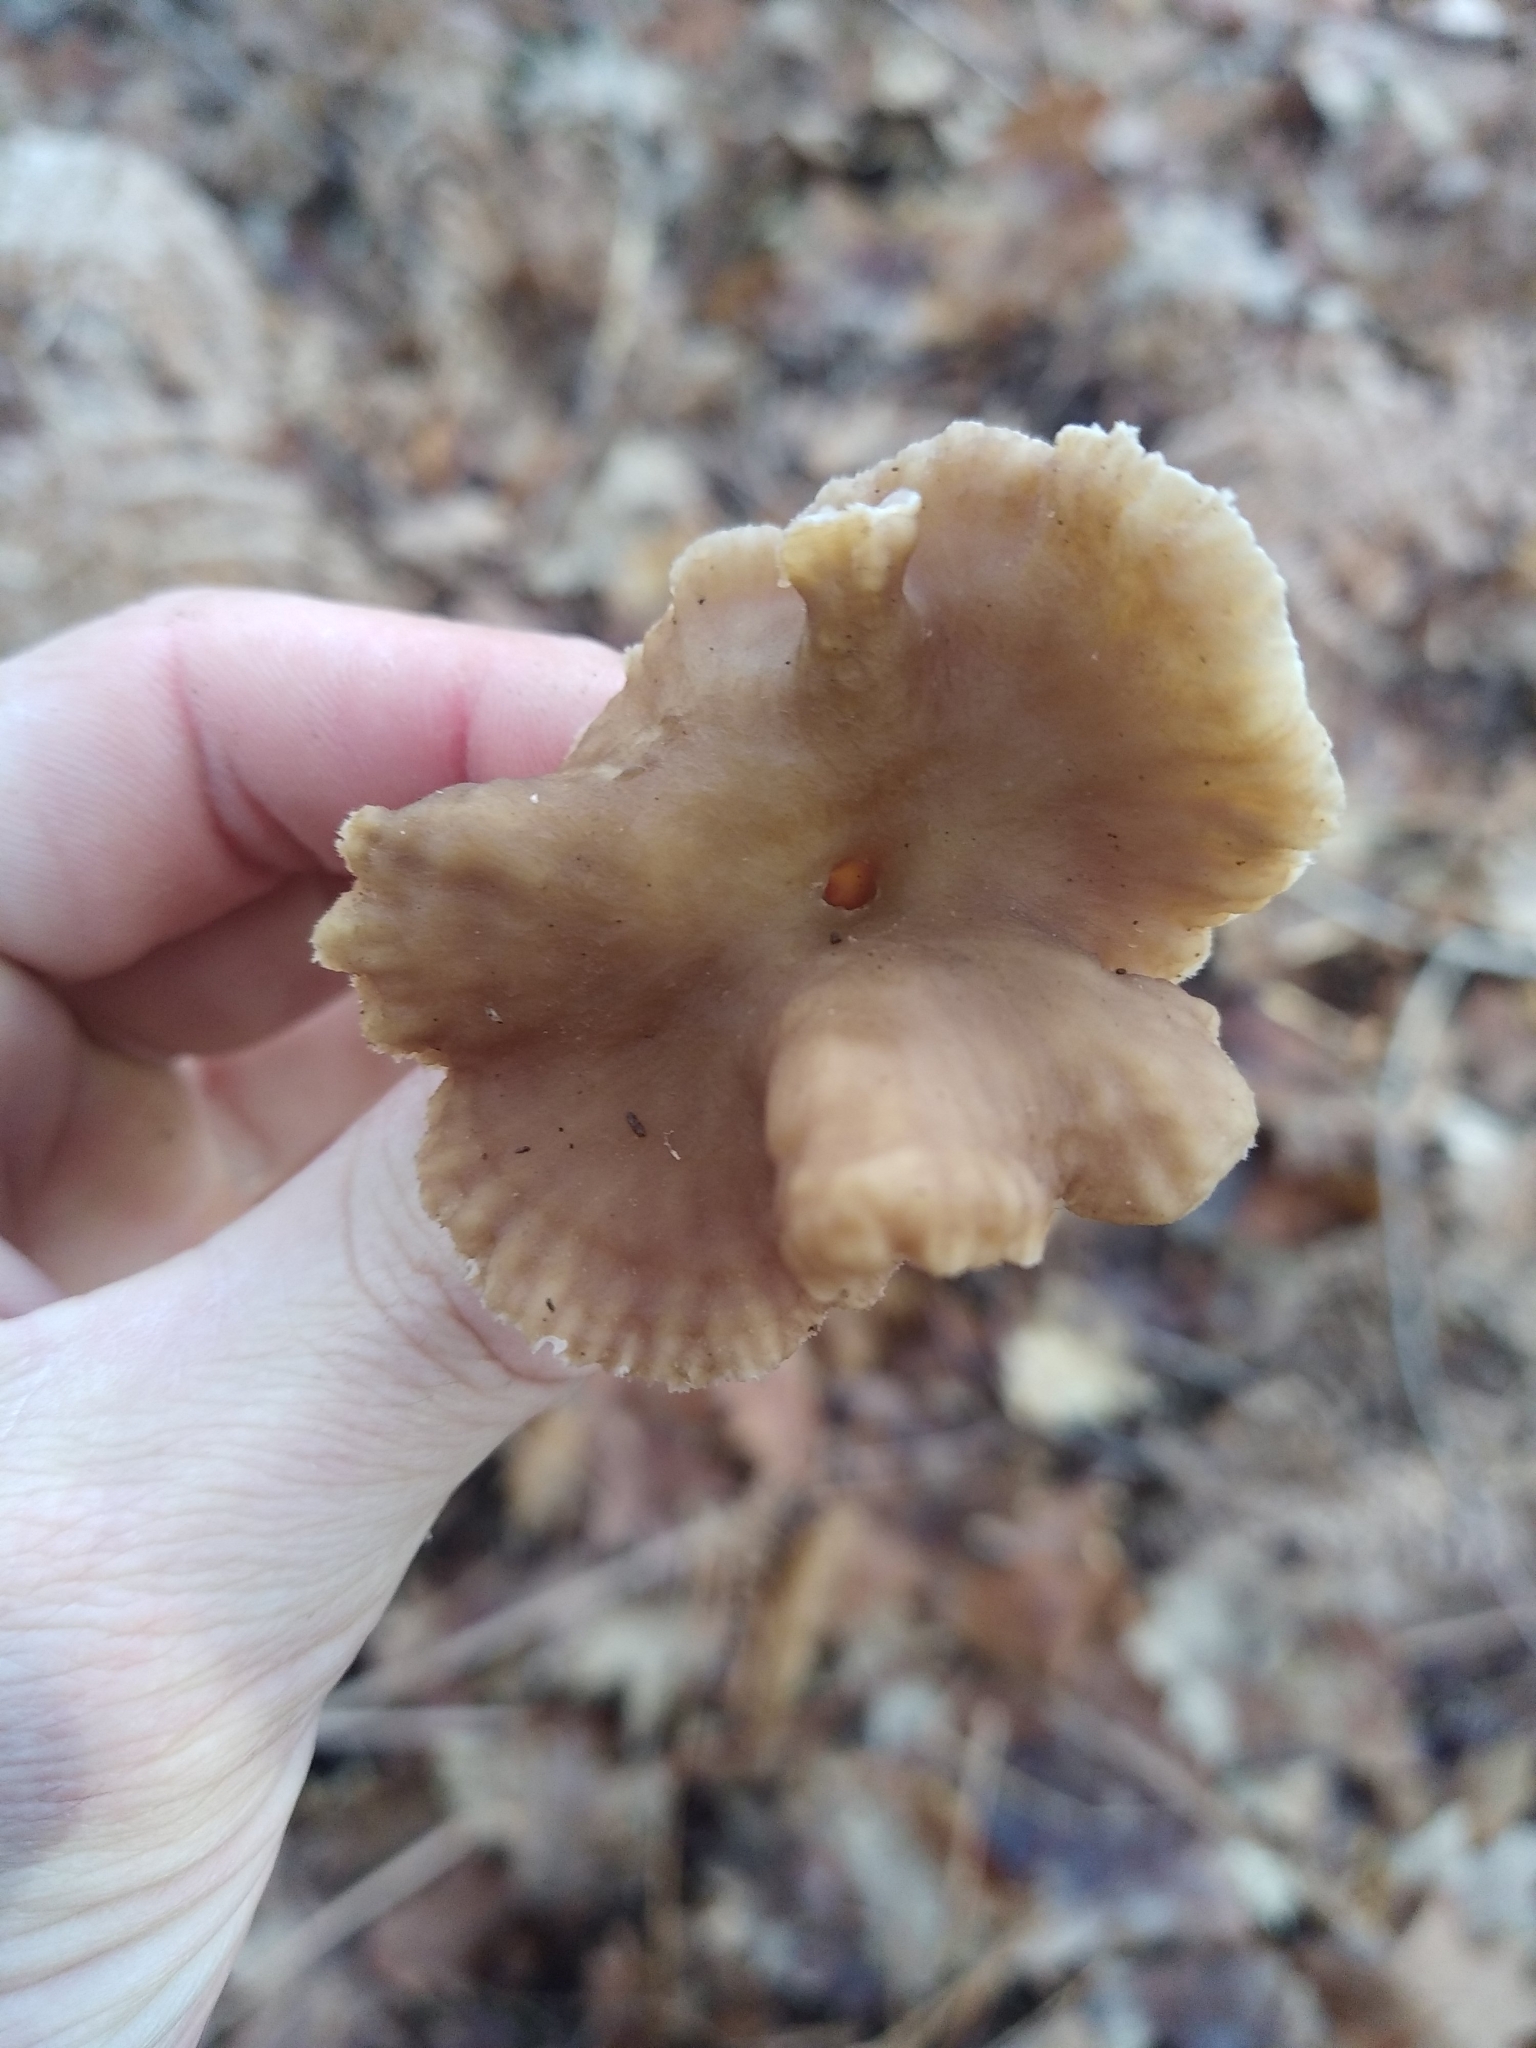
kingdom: Fungi
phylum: Basidiomycota
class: Agaricomycetes
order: Cantharellales
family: Hydnaceae
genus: Craterellus
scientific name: Craterellus tubaeformis
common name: Yellowfoot
